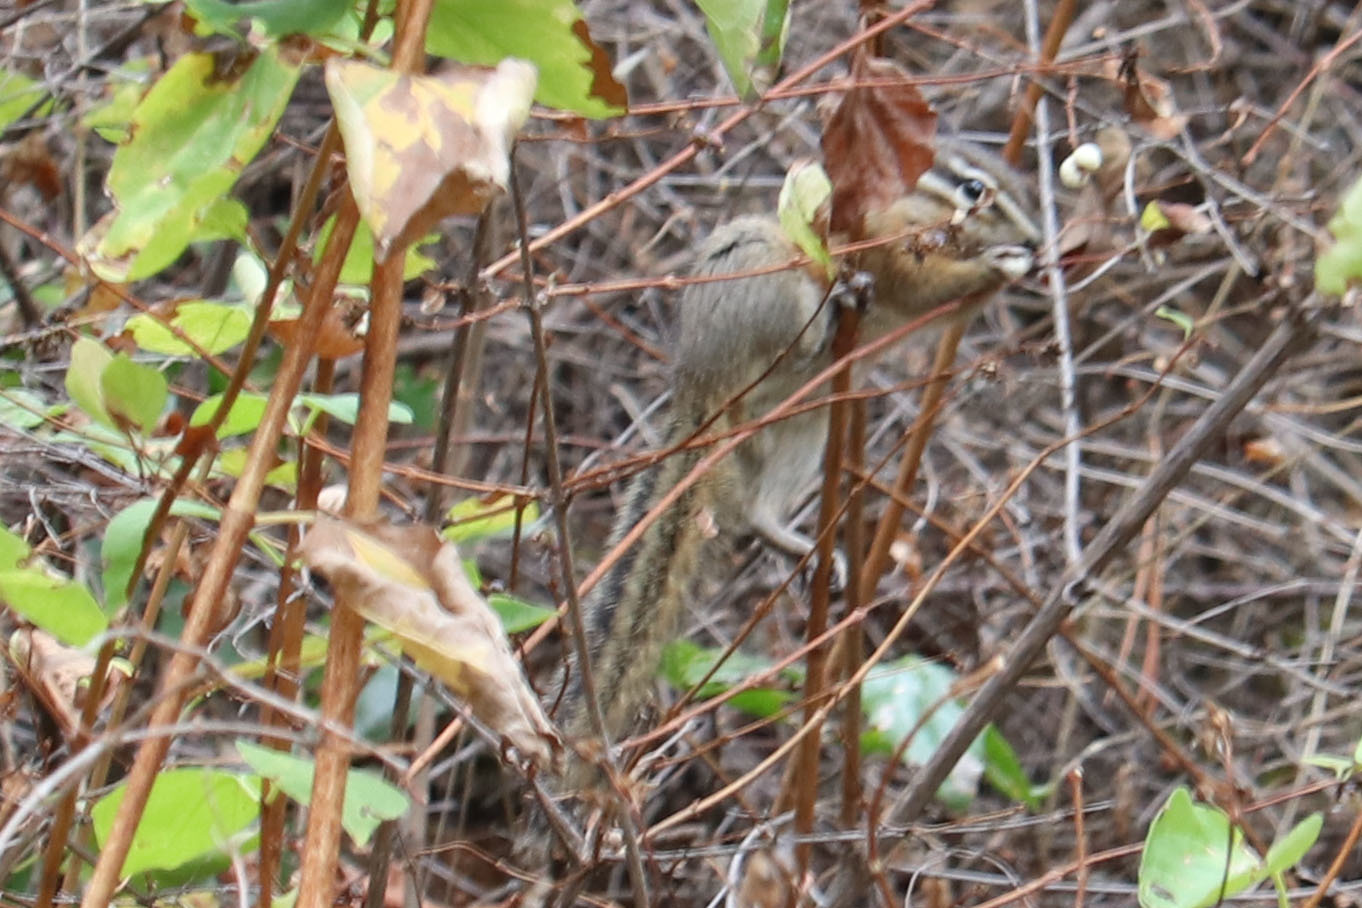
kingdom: Animalia
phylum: Chordata
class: Mammalia
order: Rodentia
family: Sciuridae
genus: Tamias
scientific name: Tamias amoenus
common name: Yellow-pine chipmunk
